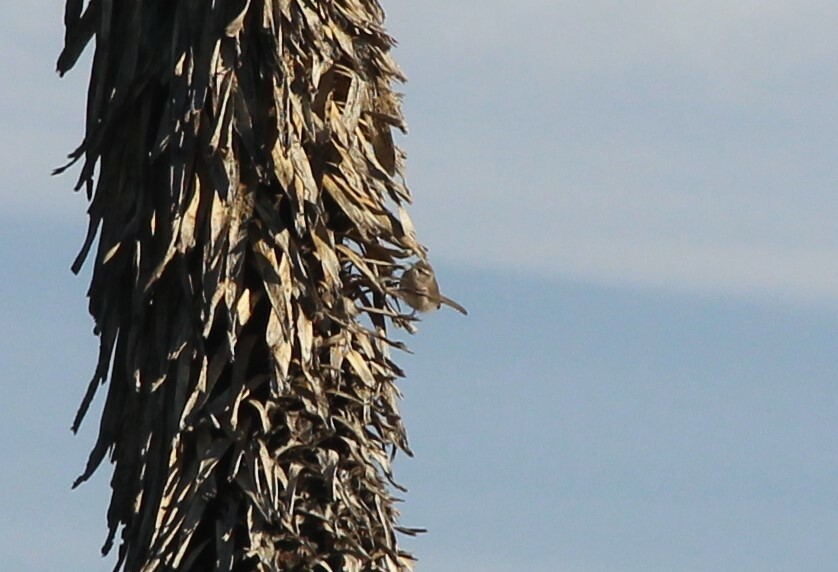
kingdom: Animalia
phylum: Chordata
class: Aves
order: Passeriformes
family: Troglodytidae
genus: Thryomanes
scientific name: Thryomanes bewickii
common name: Bewick's wren
